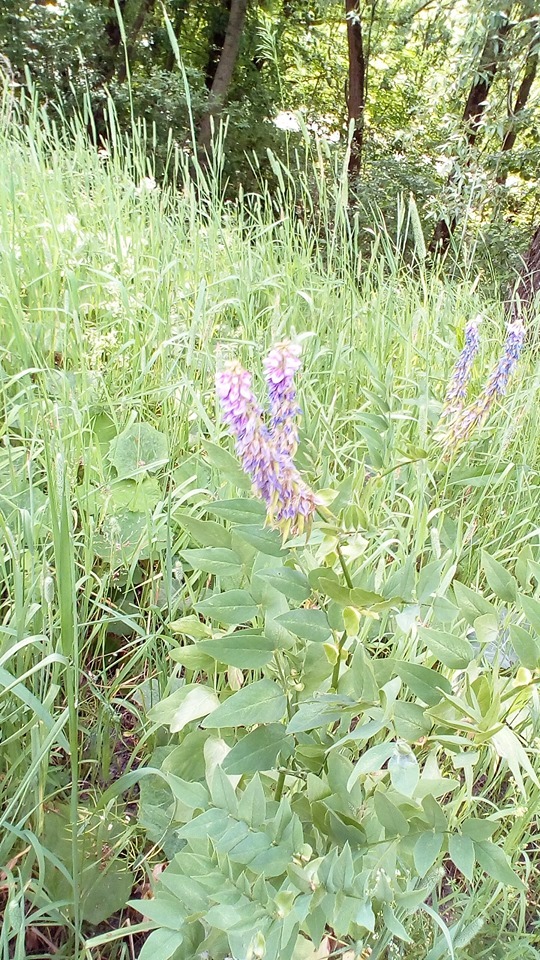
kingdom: Plantae
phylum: Tracheophyta
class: Magnoliopsida
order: Fabales
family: Fabaceae
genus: Galega
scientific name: Galega orientalis
